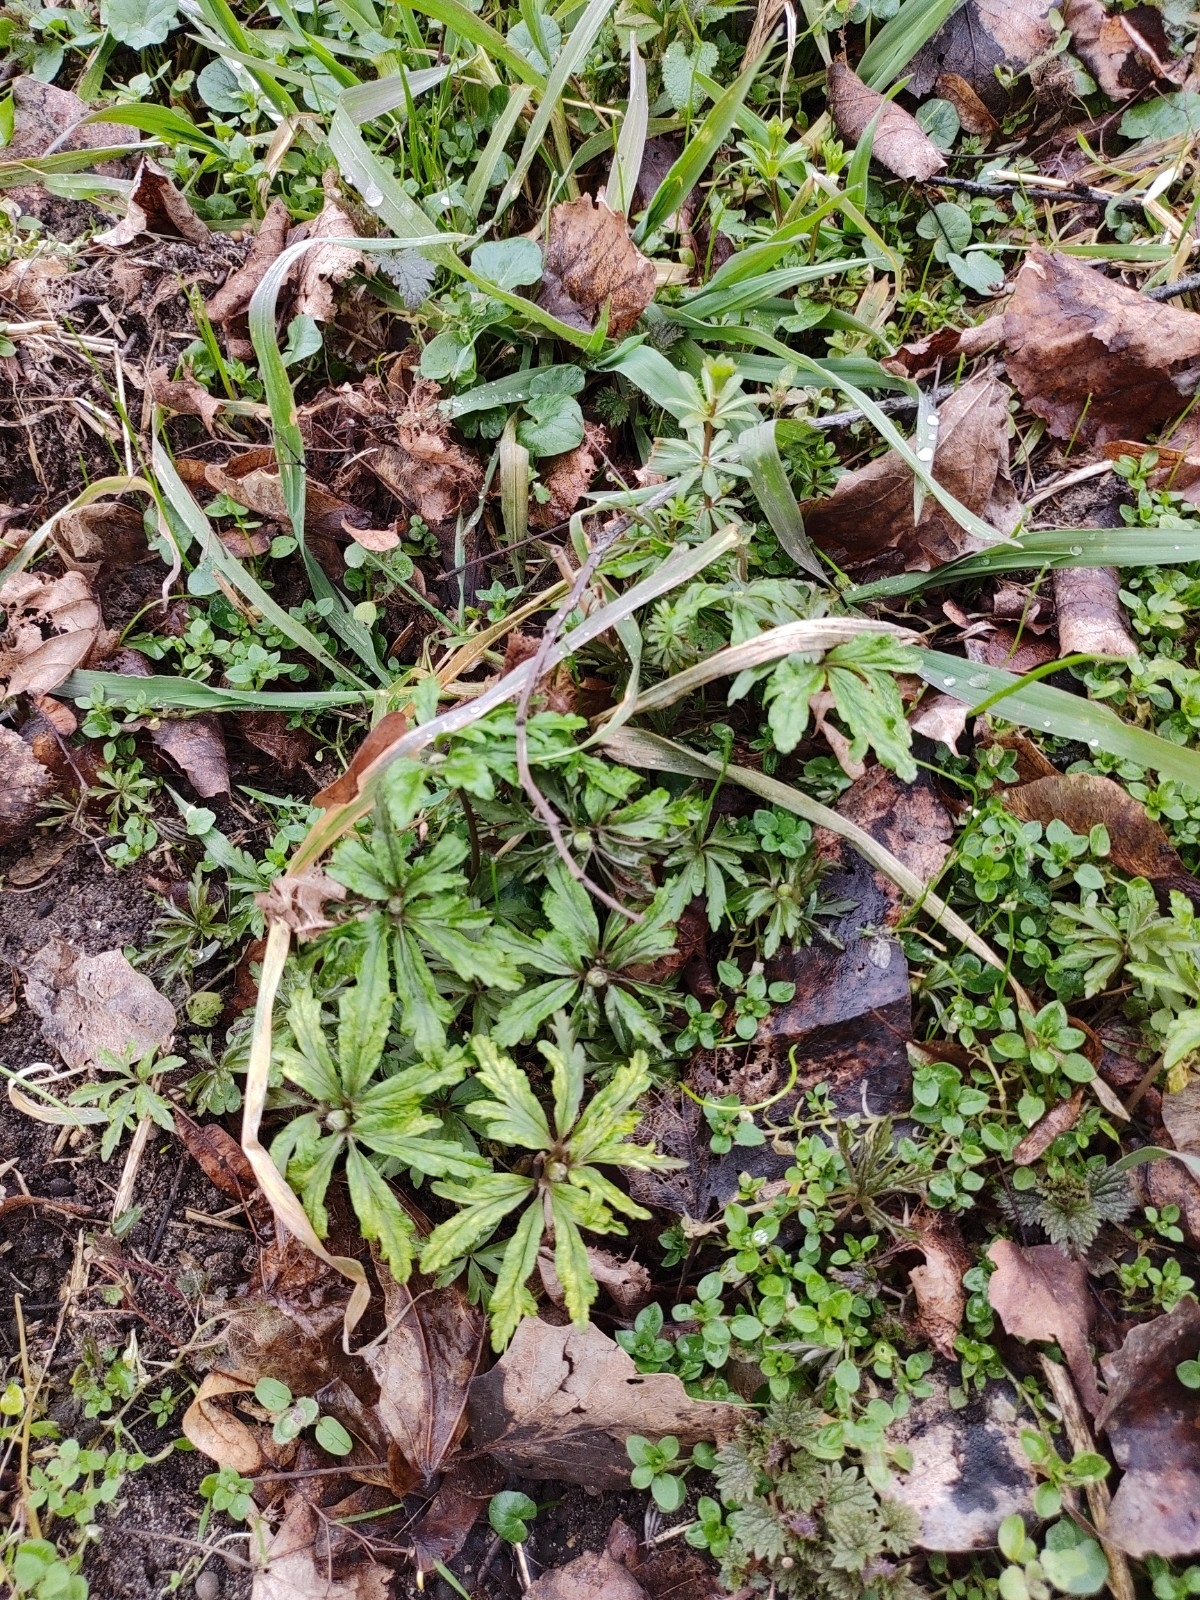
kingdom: Plantae
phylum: Tracheophyta
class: Magnoliopsida
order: Ranunculales
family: Ranunculaceae
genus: Anemone
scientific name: Anemone ranunculoides
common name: Yellow anemone
